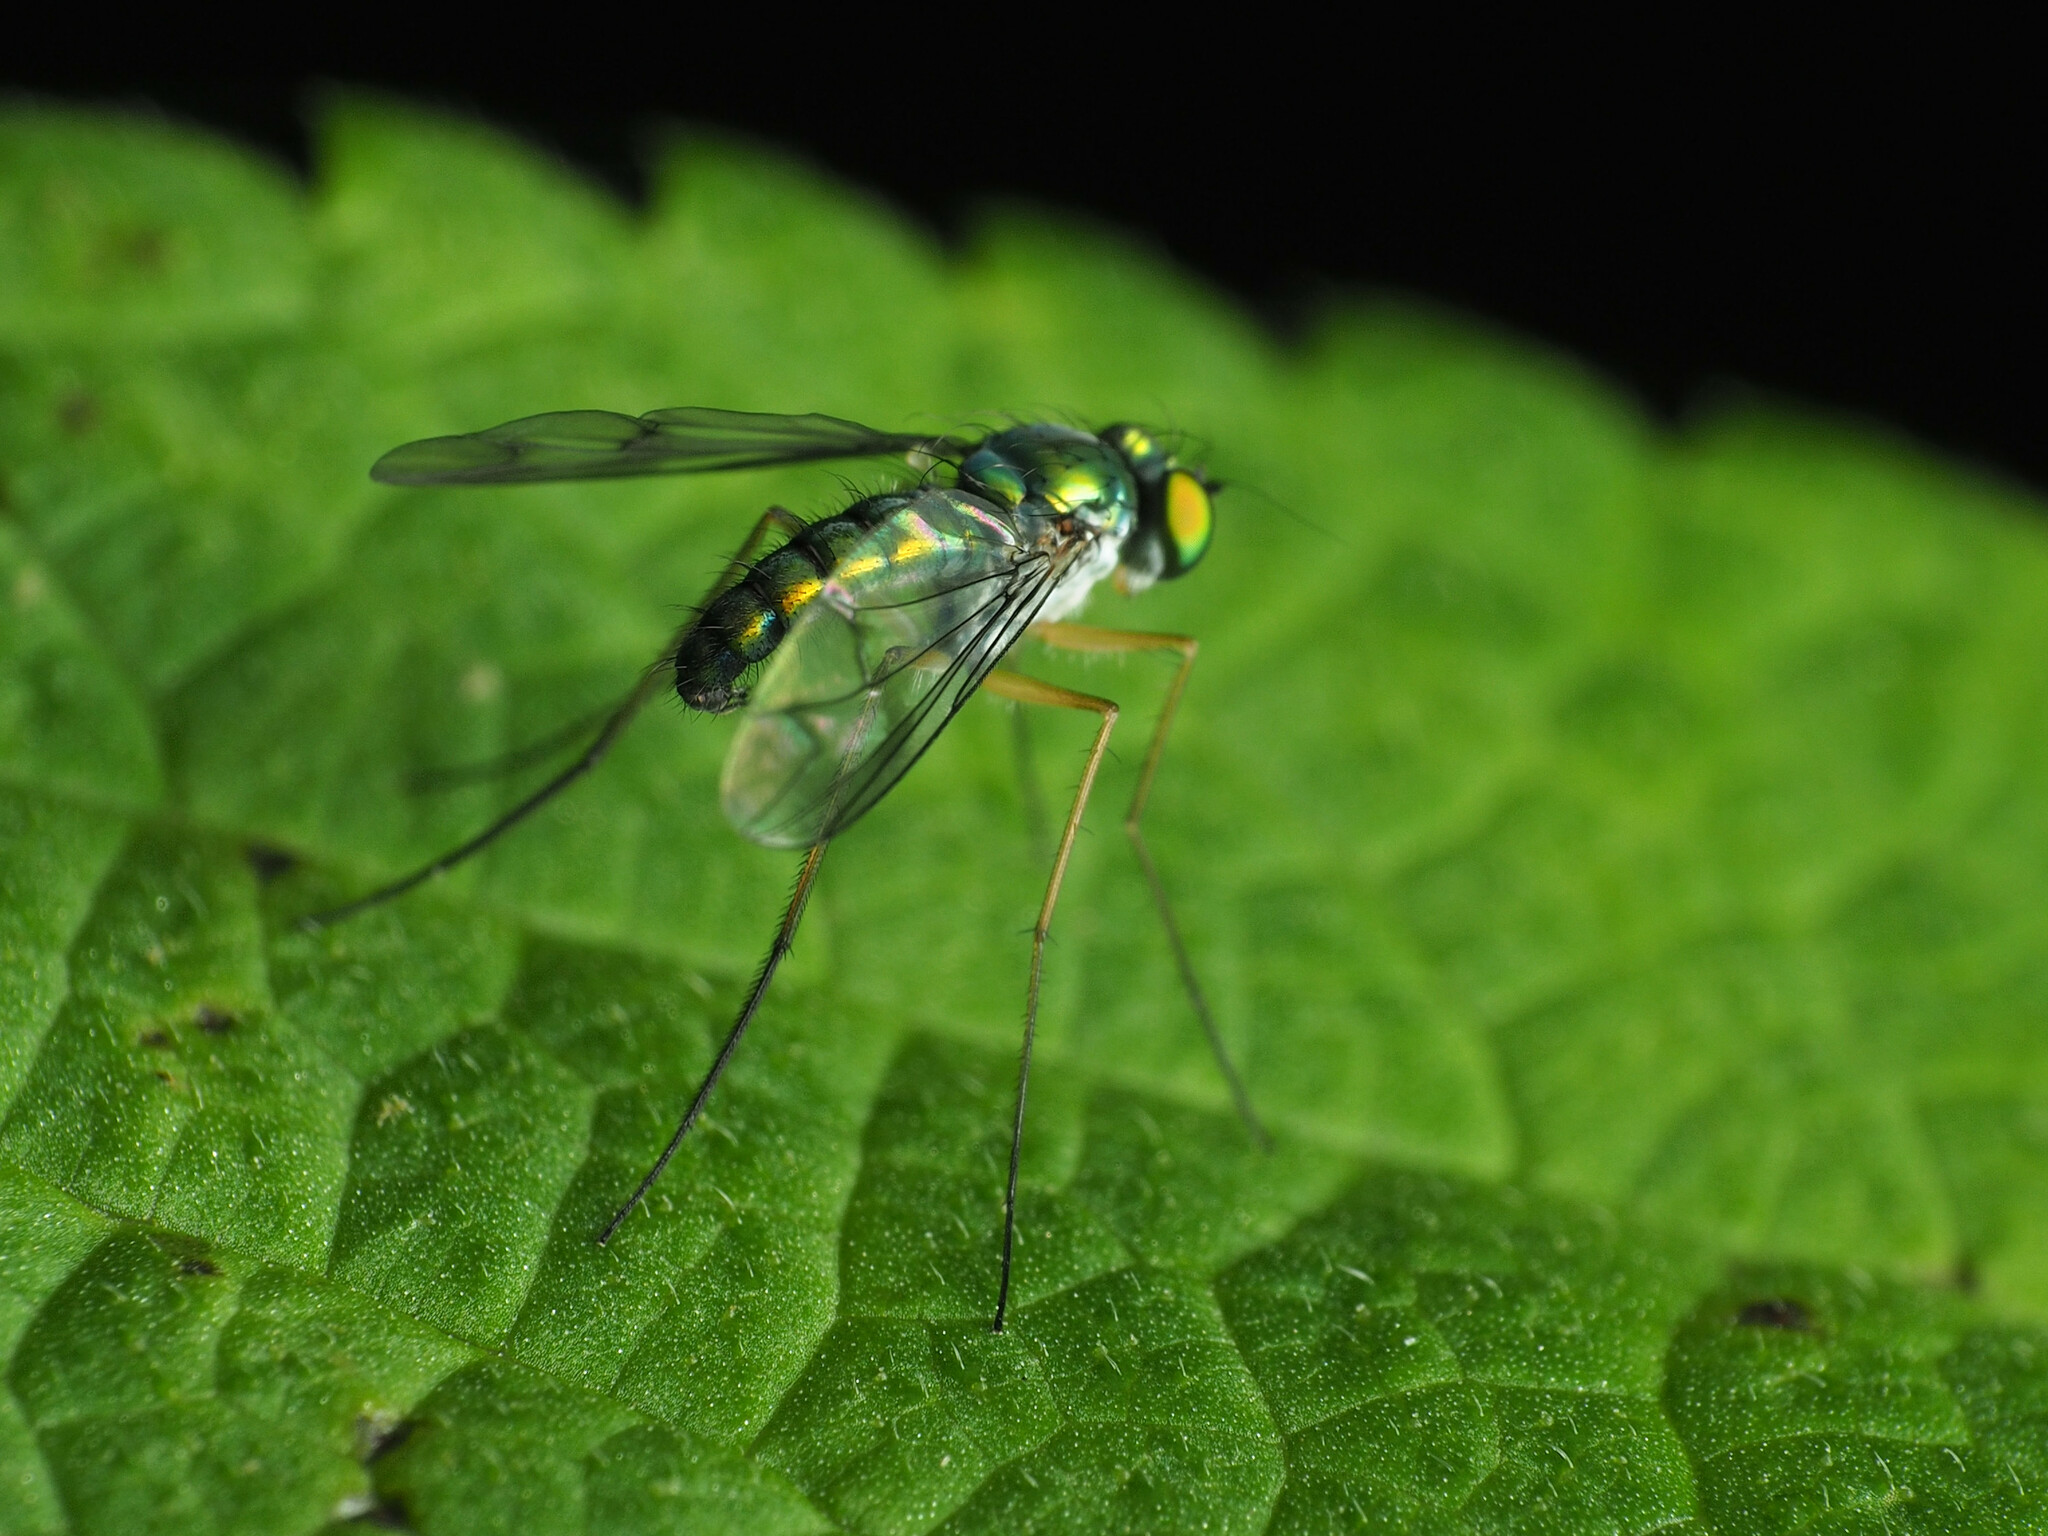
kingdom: Animalia
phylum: Arthropoda
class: Insecta
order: Diptera
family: Dolichopodidae
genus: Condylostylus
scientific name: Condylostylus
